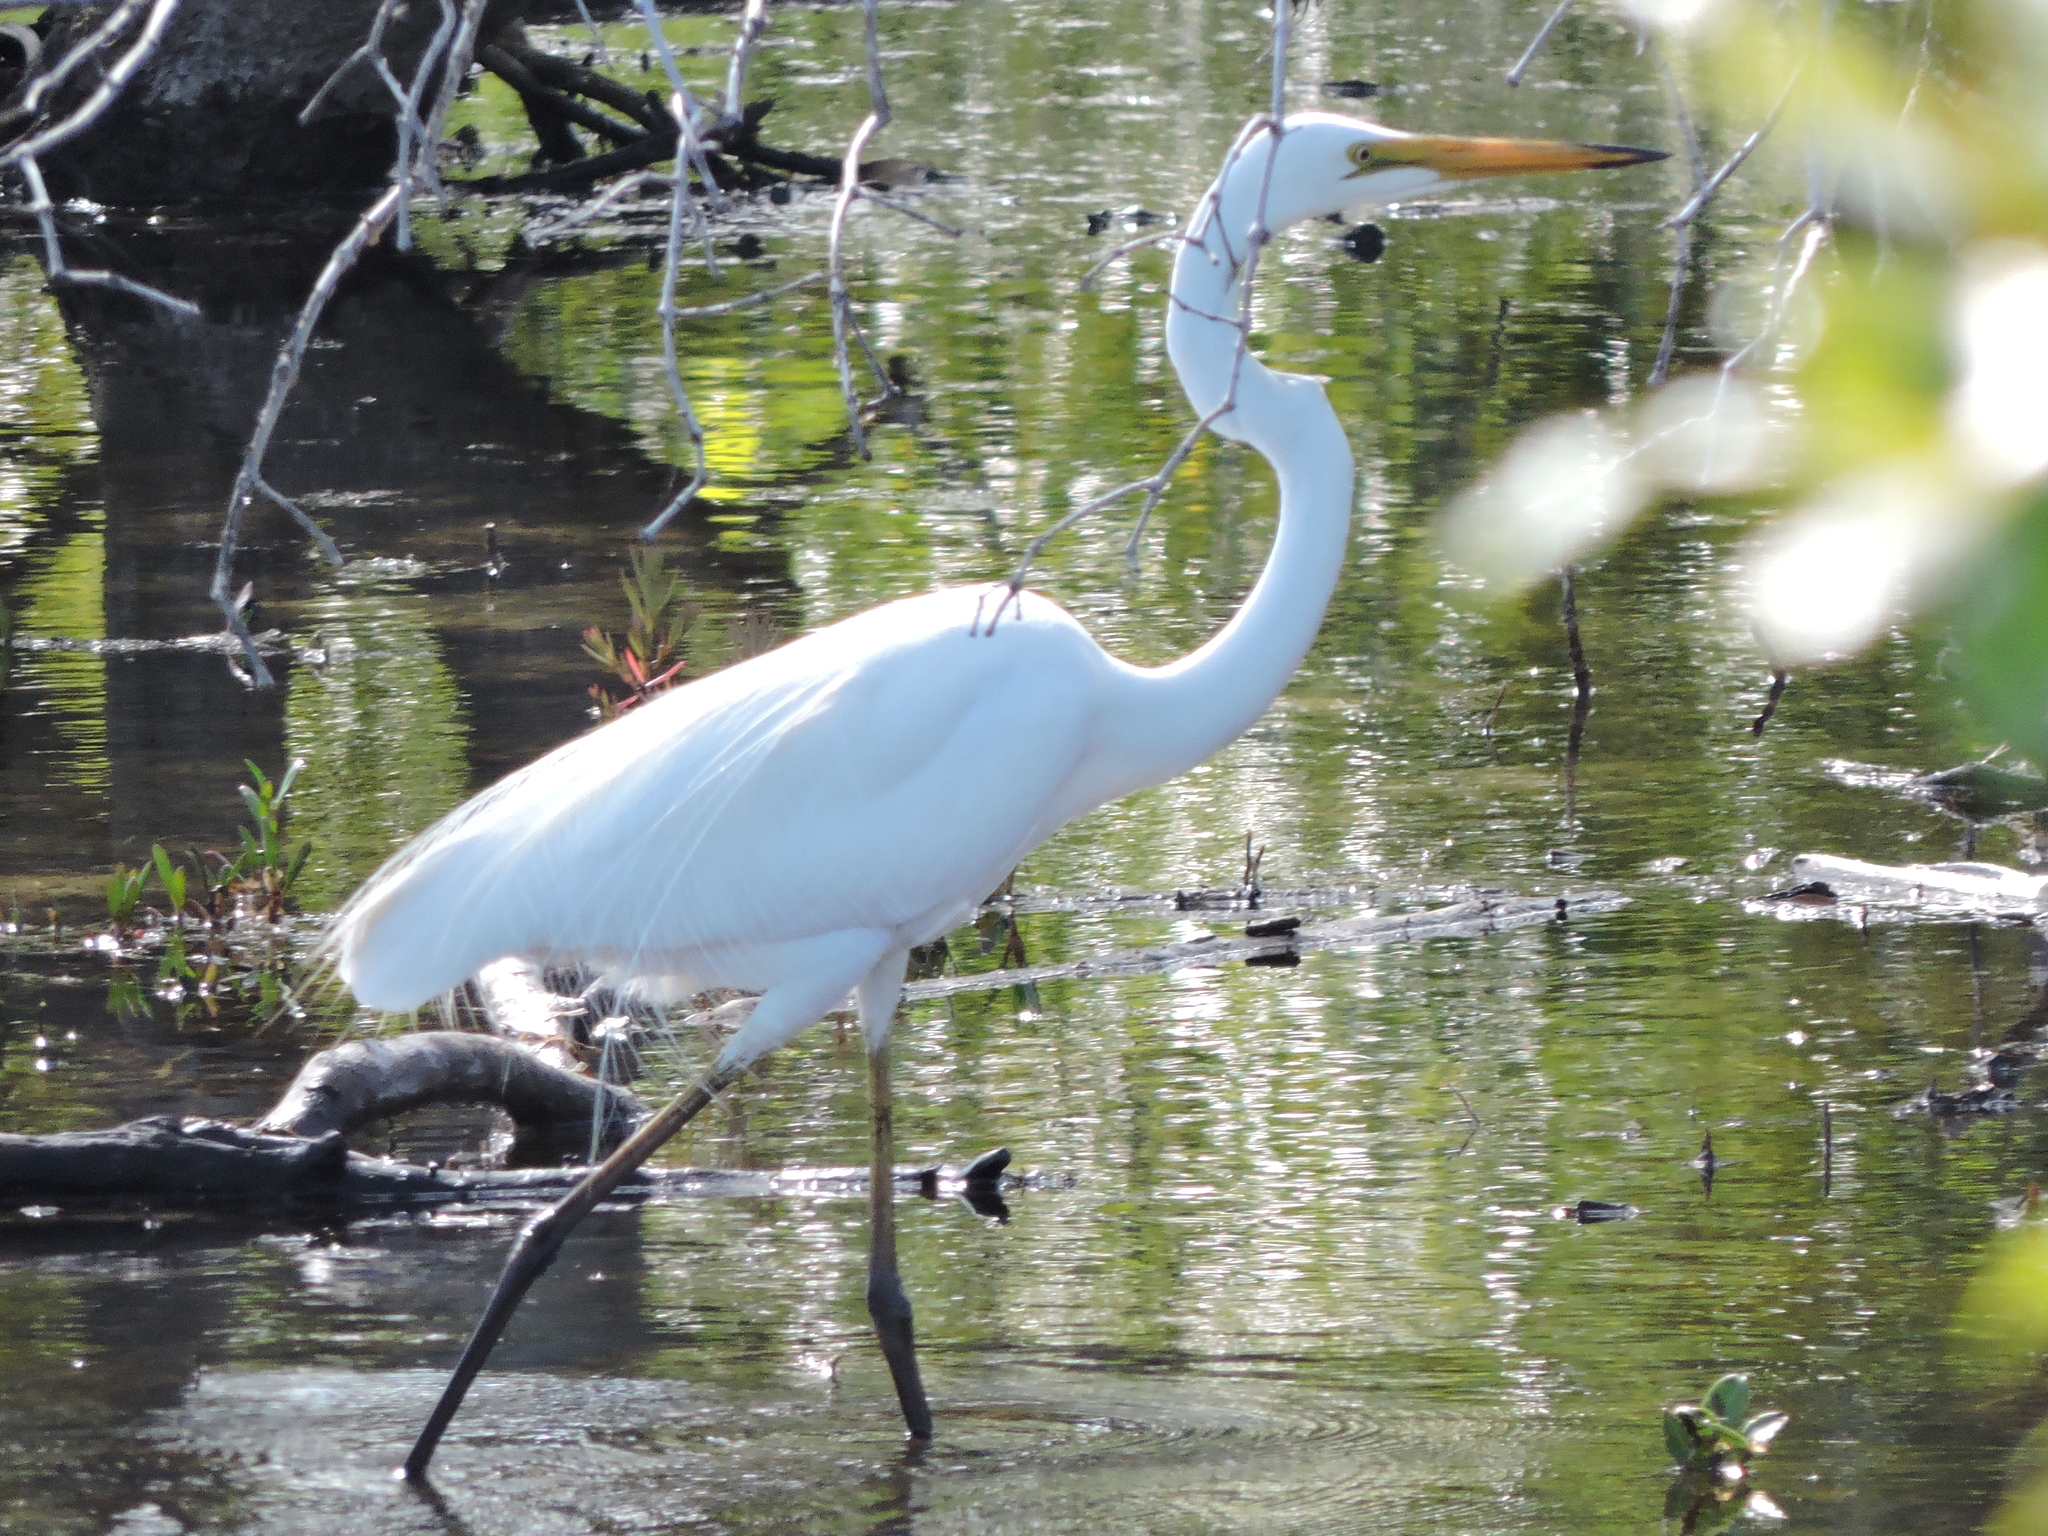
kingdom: Animalia
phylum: Chordata
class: Aves
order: Pelecaniformes
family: Ardeidae
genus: Ardea
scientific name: Ardea alba
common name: Great egret
